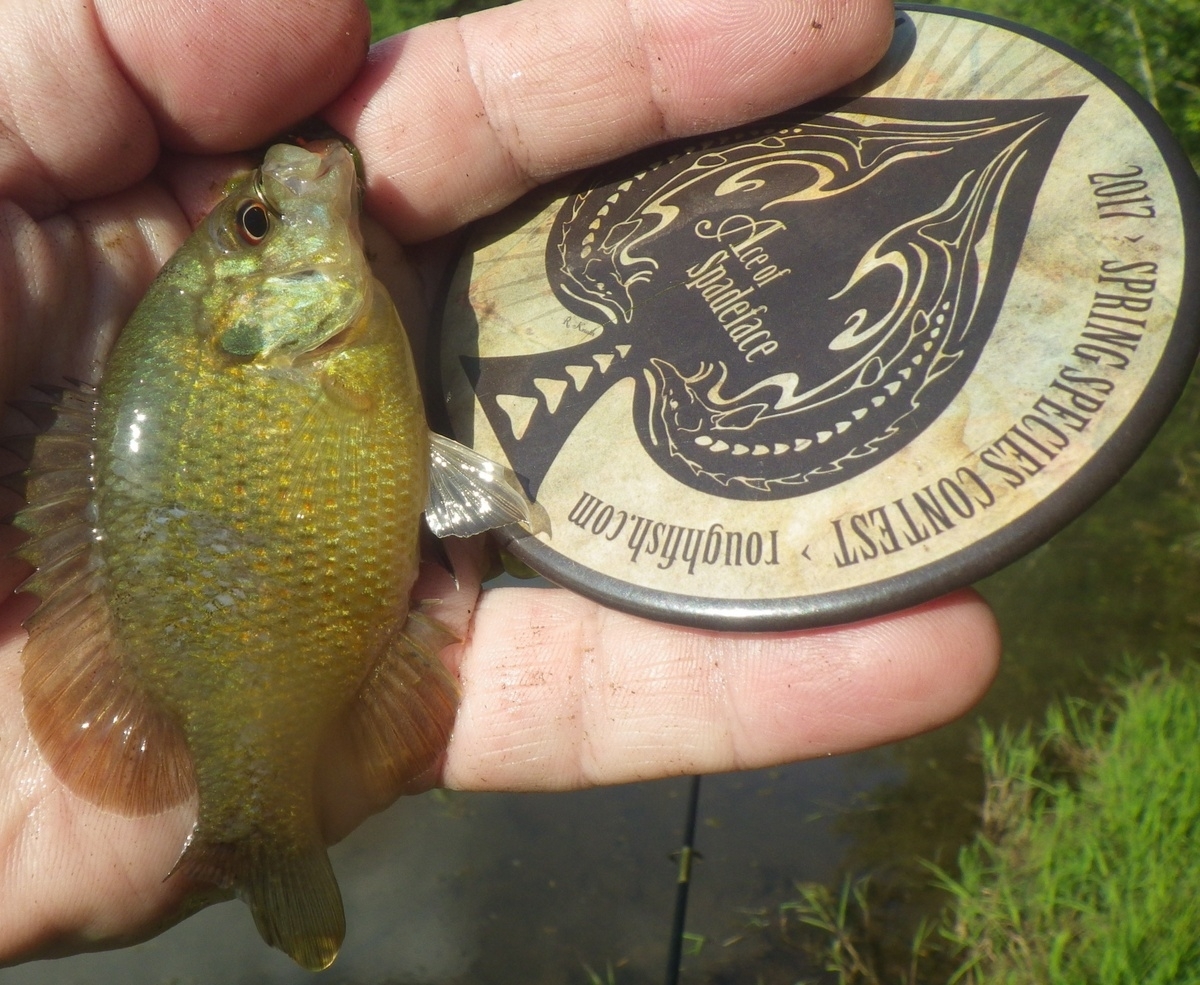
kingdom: Animalia
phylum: Chordata
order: Perciformes
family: Centrarchidae
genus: Lepomis
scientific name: Lepomis miniatus
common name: Redspotted sunfish
